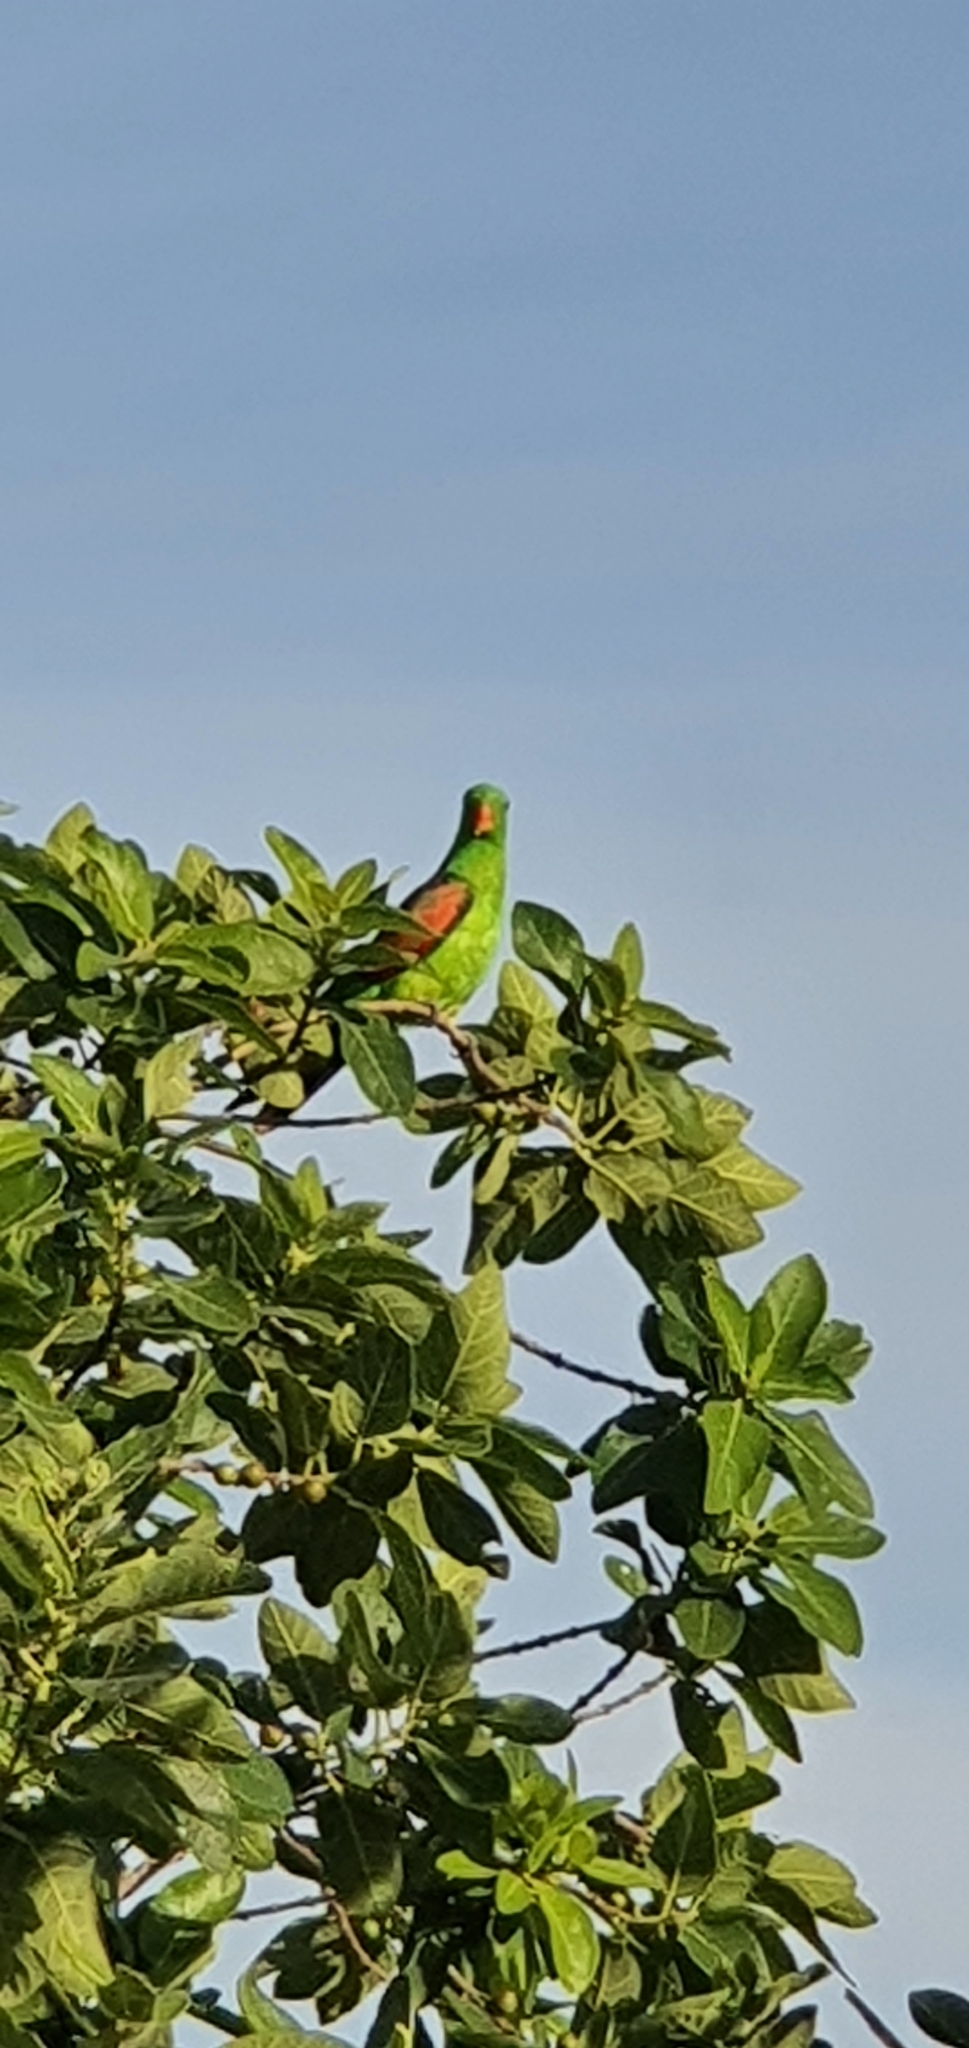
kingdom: Animalia
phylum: Chordata
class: Aves
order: Psittaciformes
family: Psittacidae
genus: Aprosmictus
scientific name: Aprosmictus erythropterus
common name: Red-winged parrot
